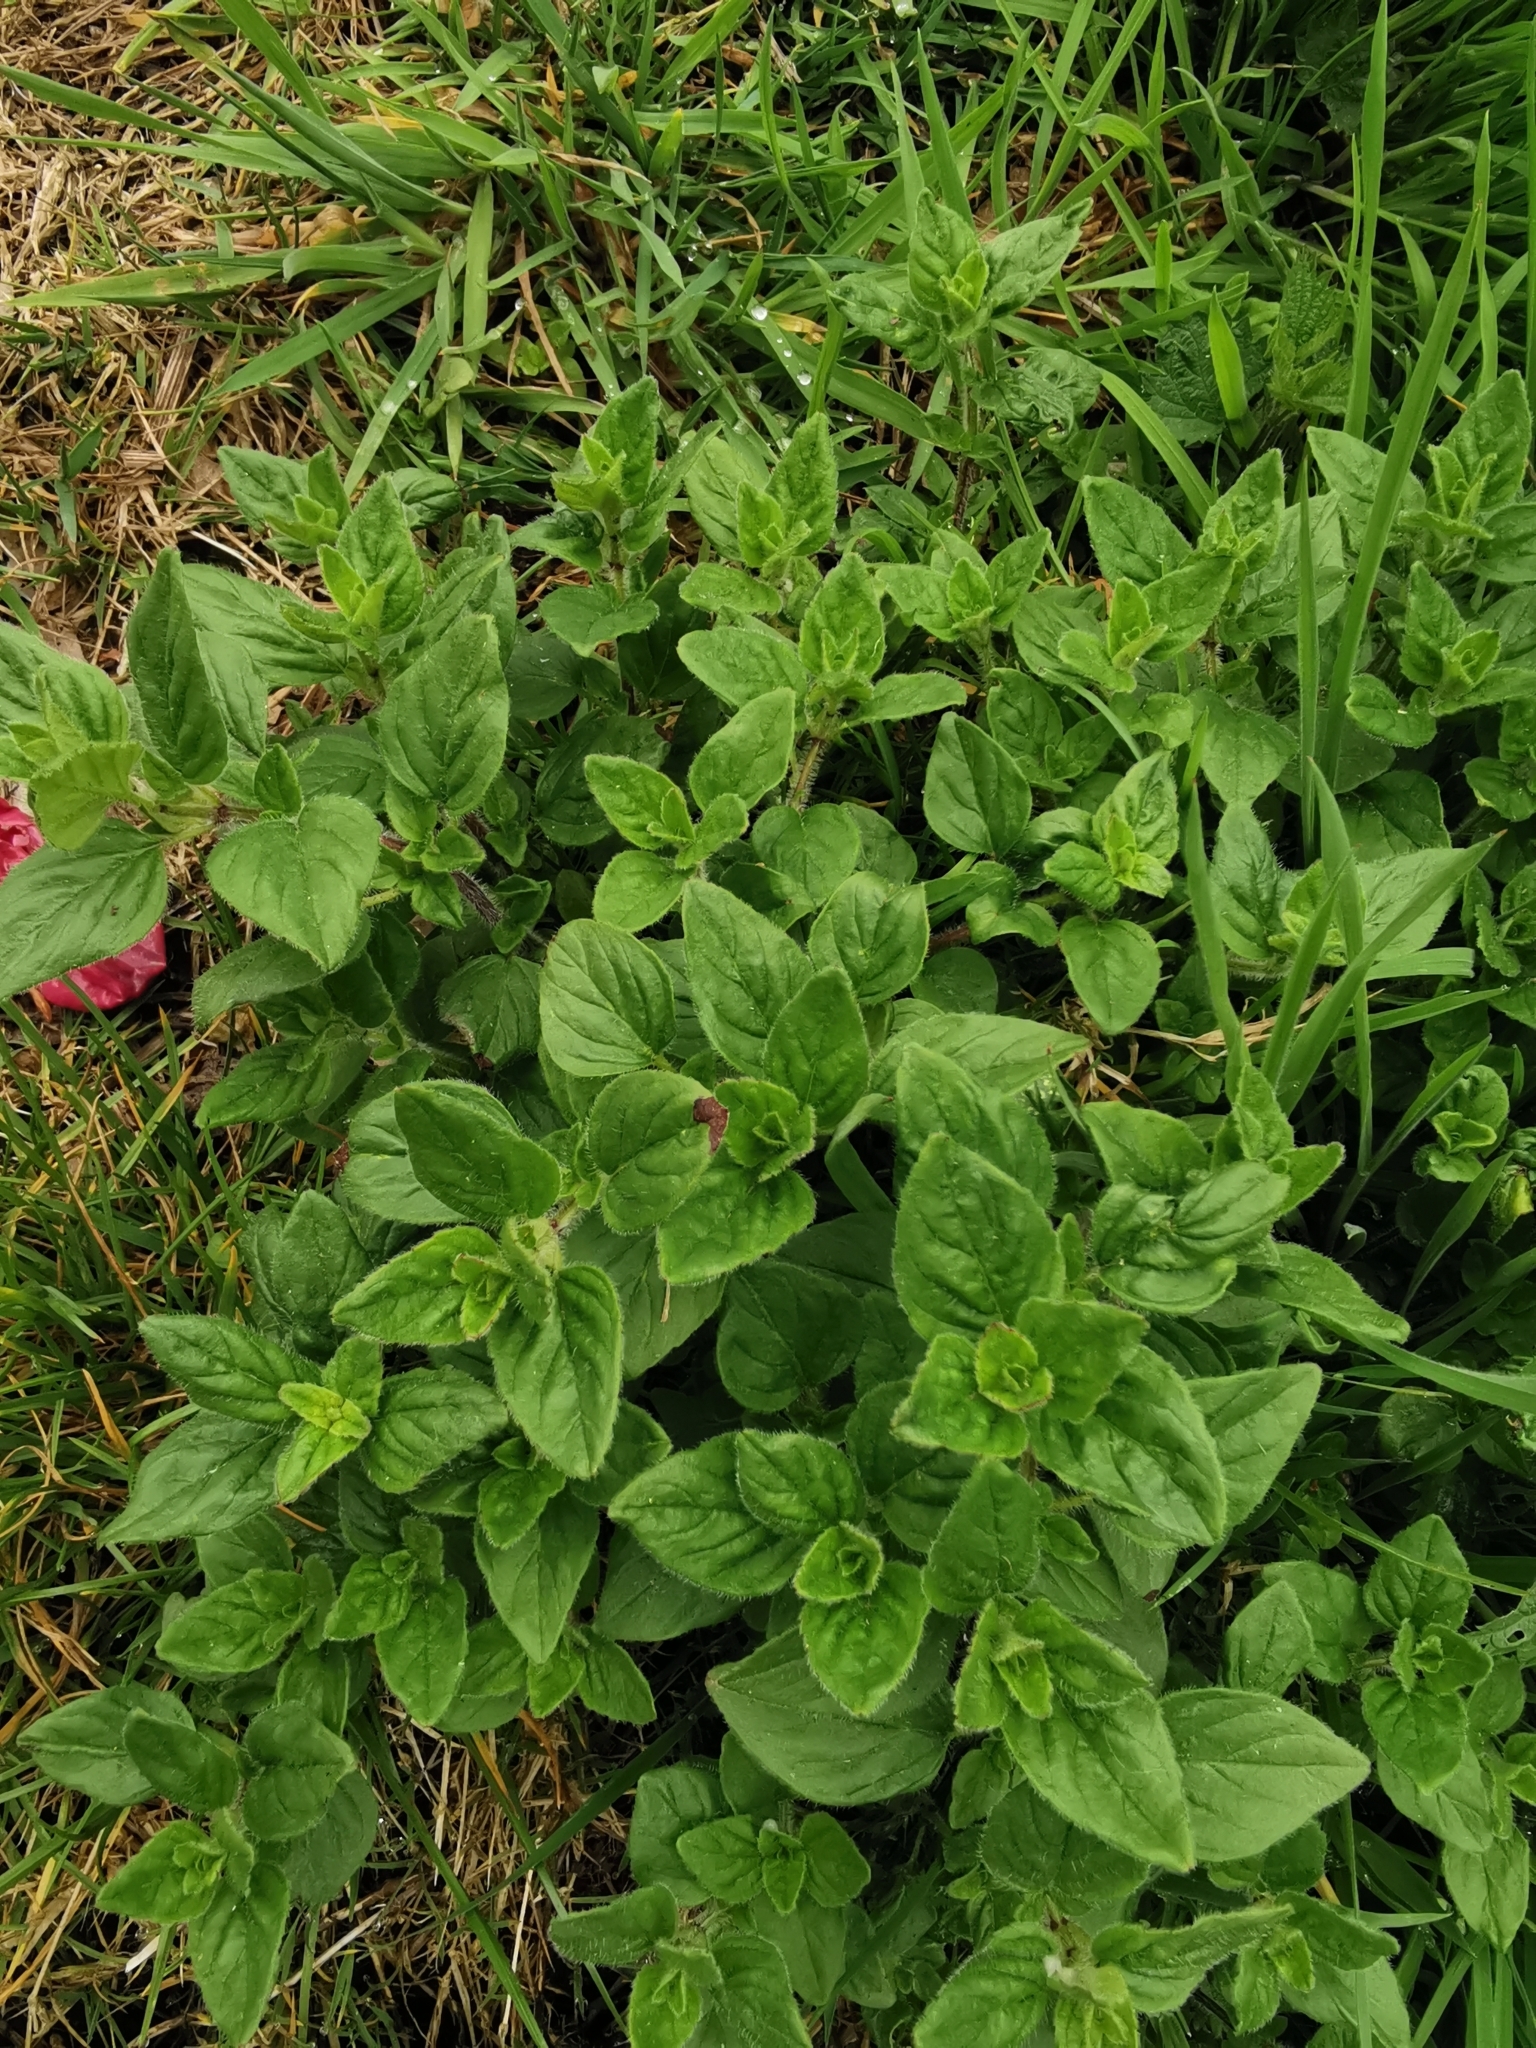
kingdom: Plantae
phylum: Tracheophyta
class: Magnoliopsida
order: Lamiales
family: Lamiaceae
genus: Origanum
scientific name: Origanum vulgare
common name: Wild marjoram
